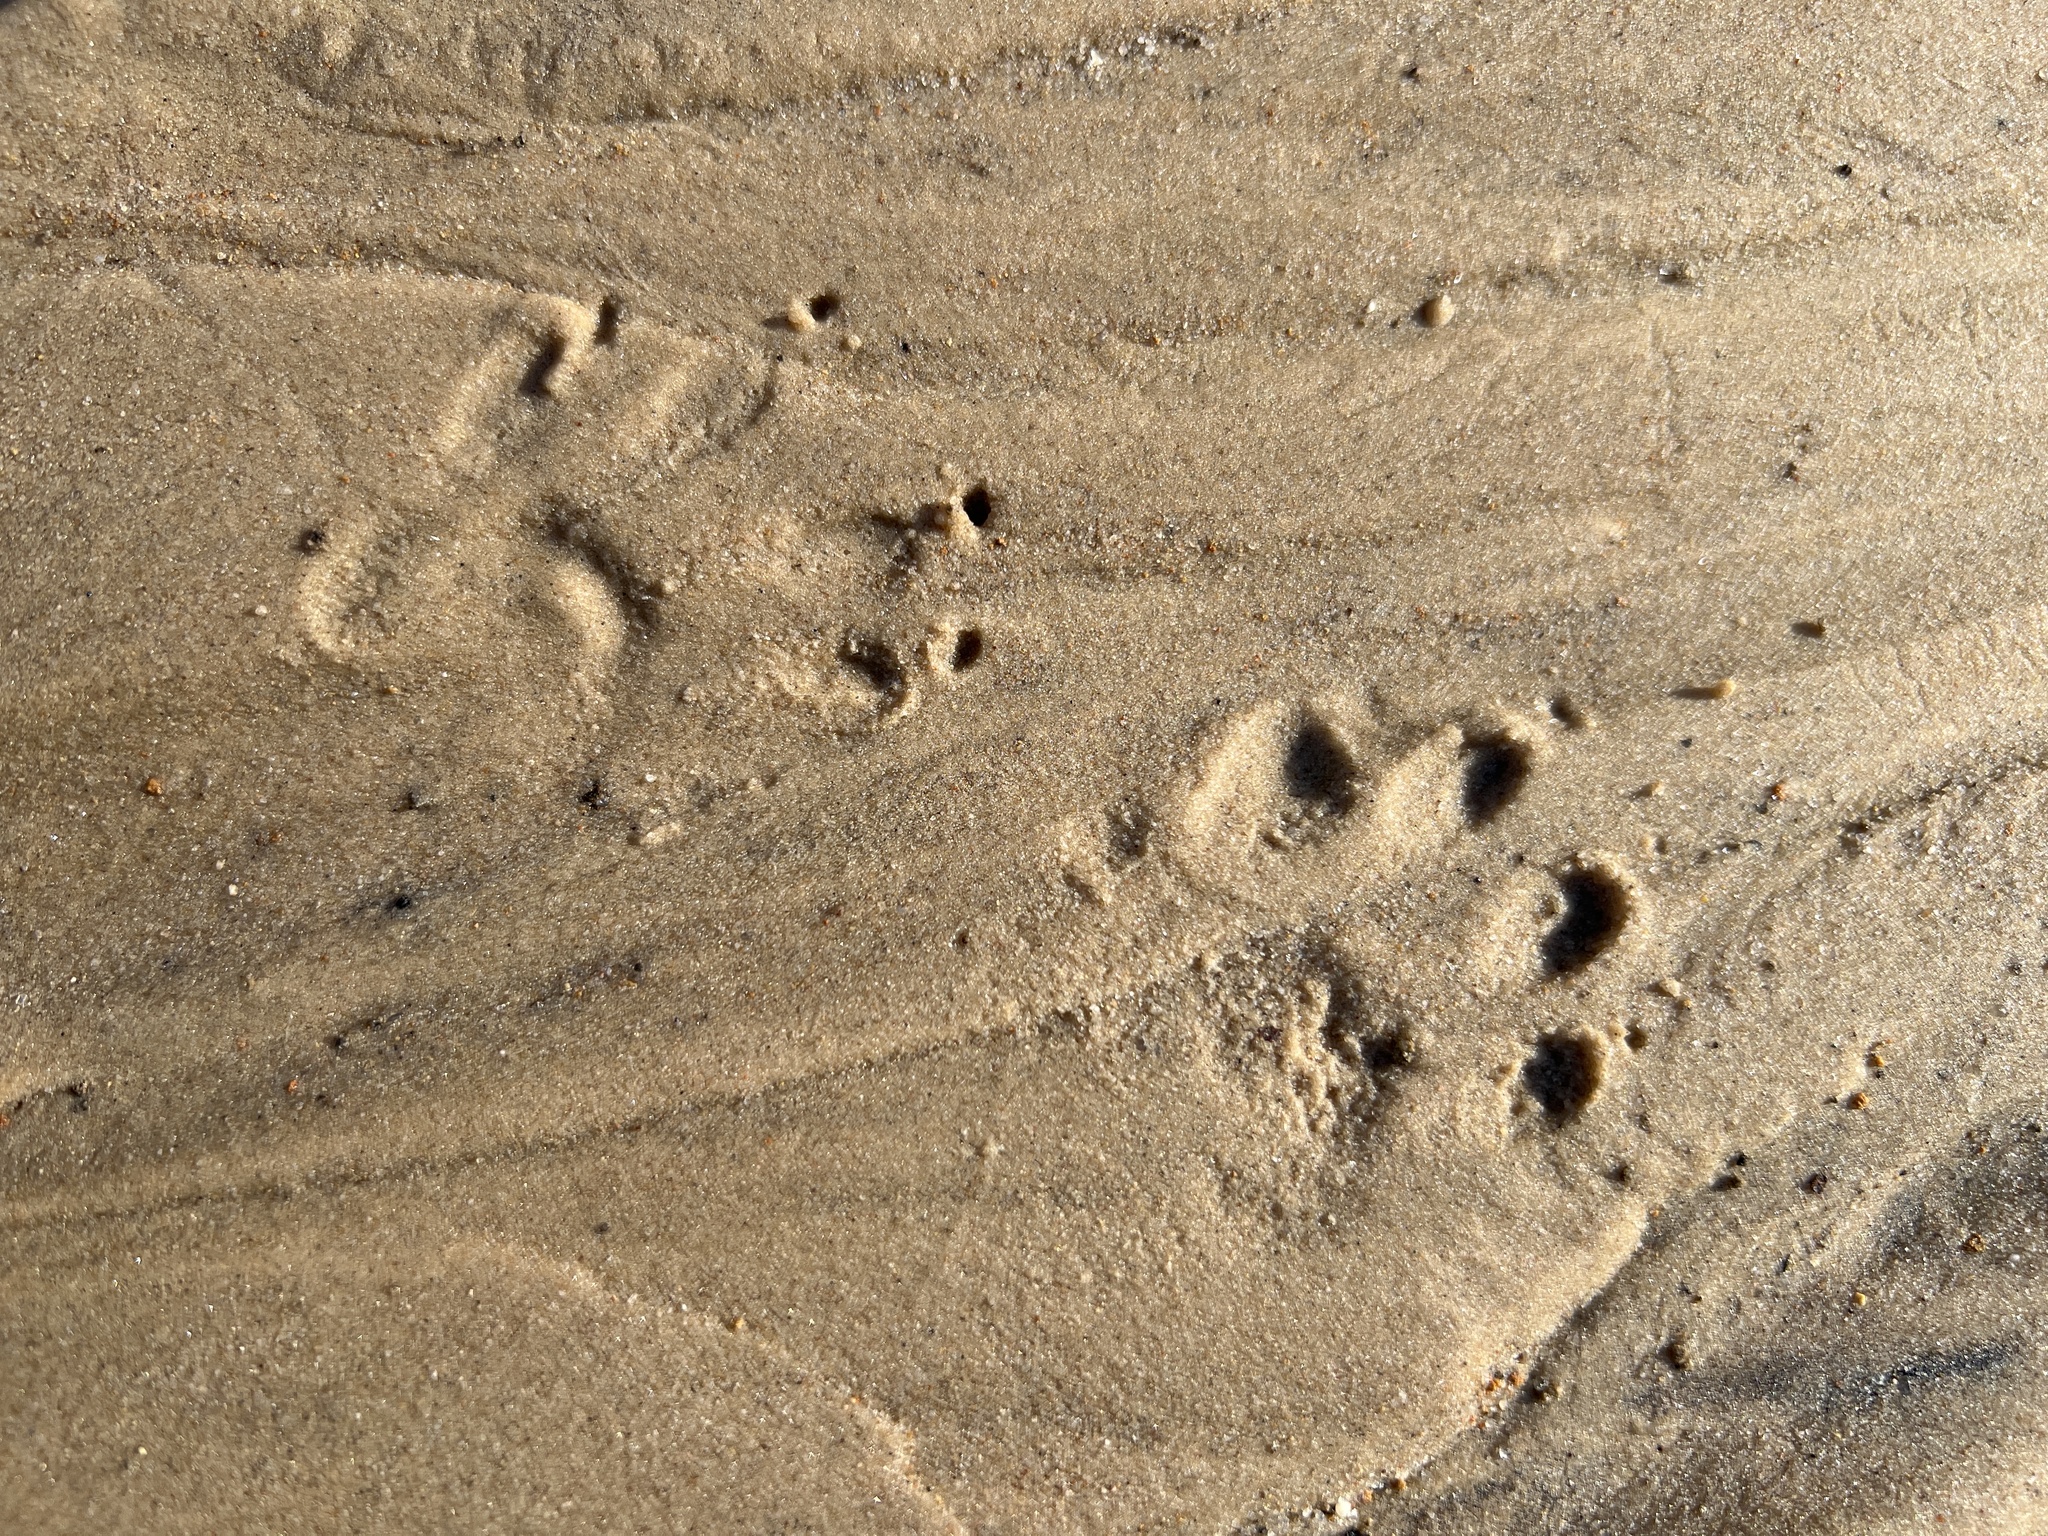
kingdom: Animalia
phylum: Chordata
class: Mammalia
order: Carnivora
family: Procyonidae
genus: Procyon
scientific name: Procyon lotor
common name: Raccoon
